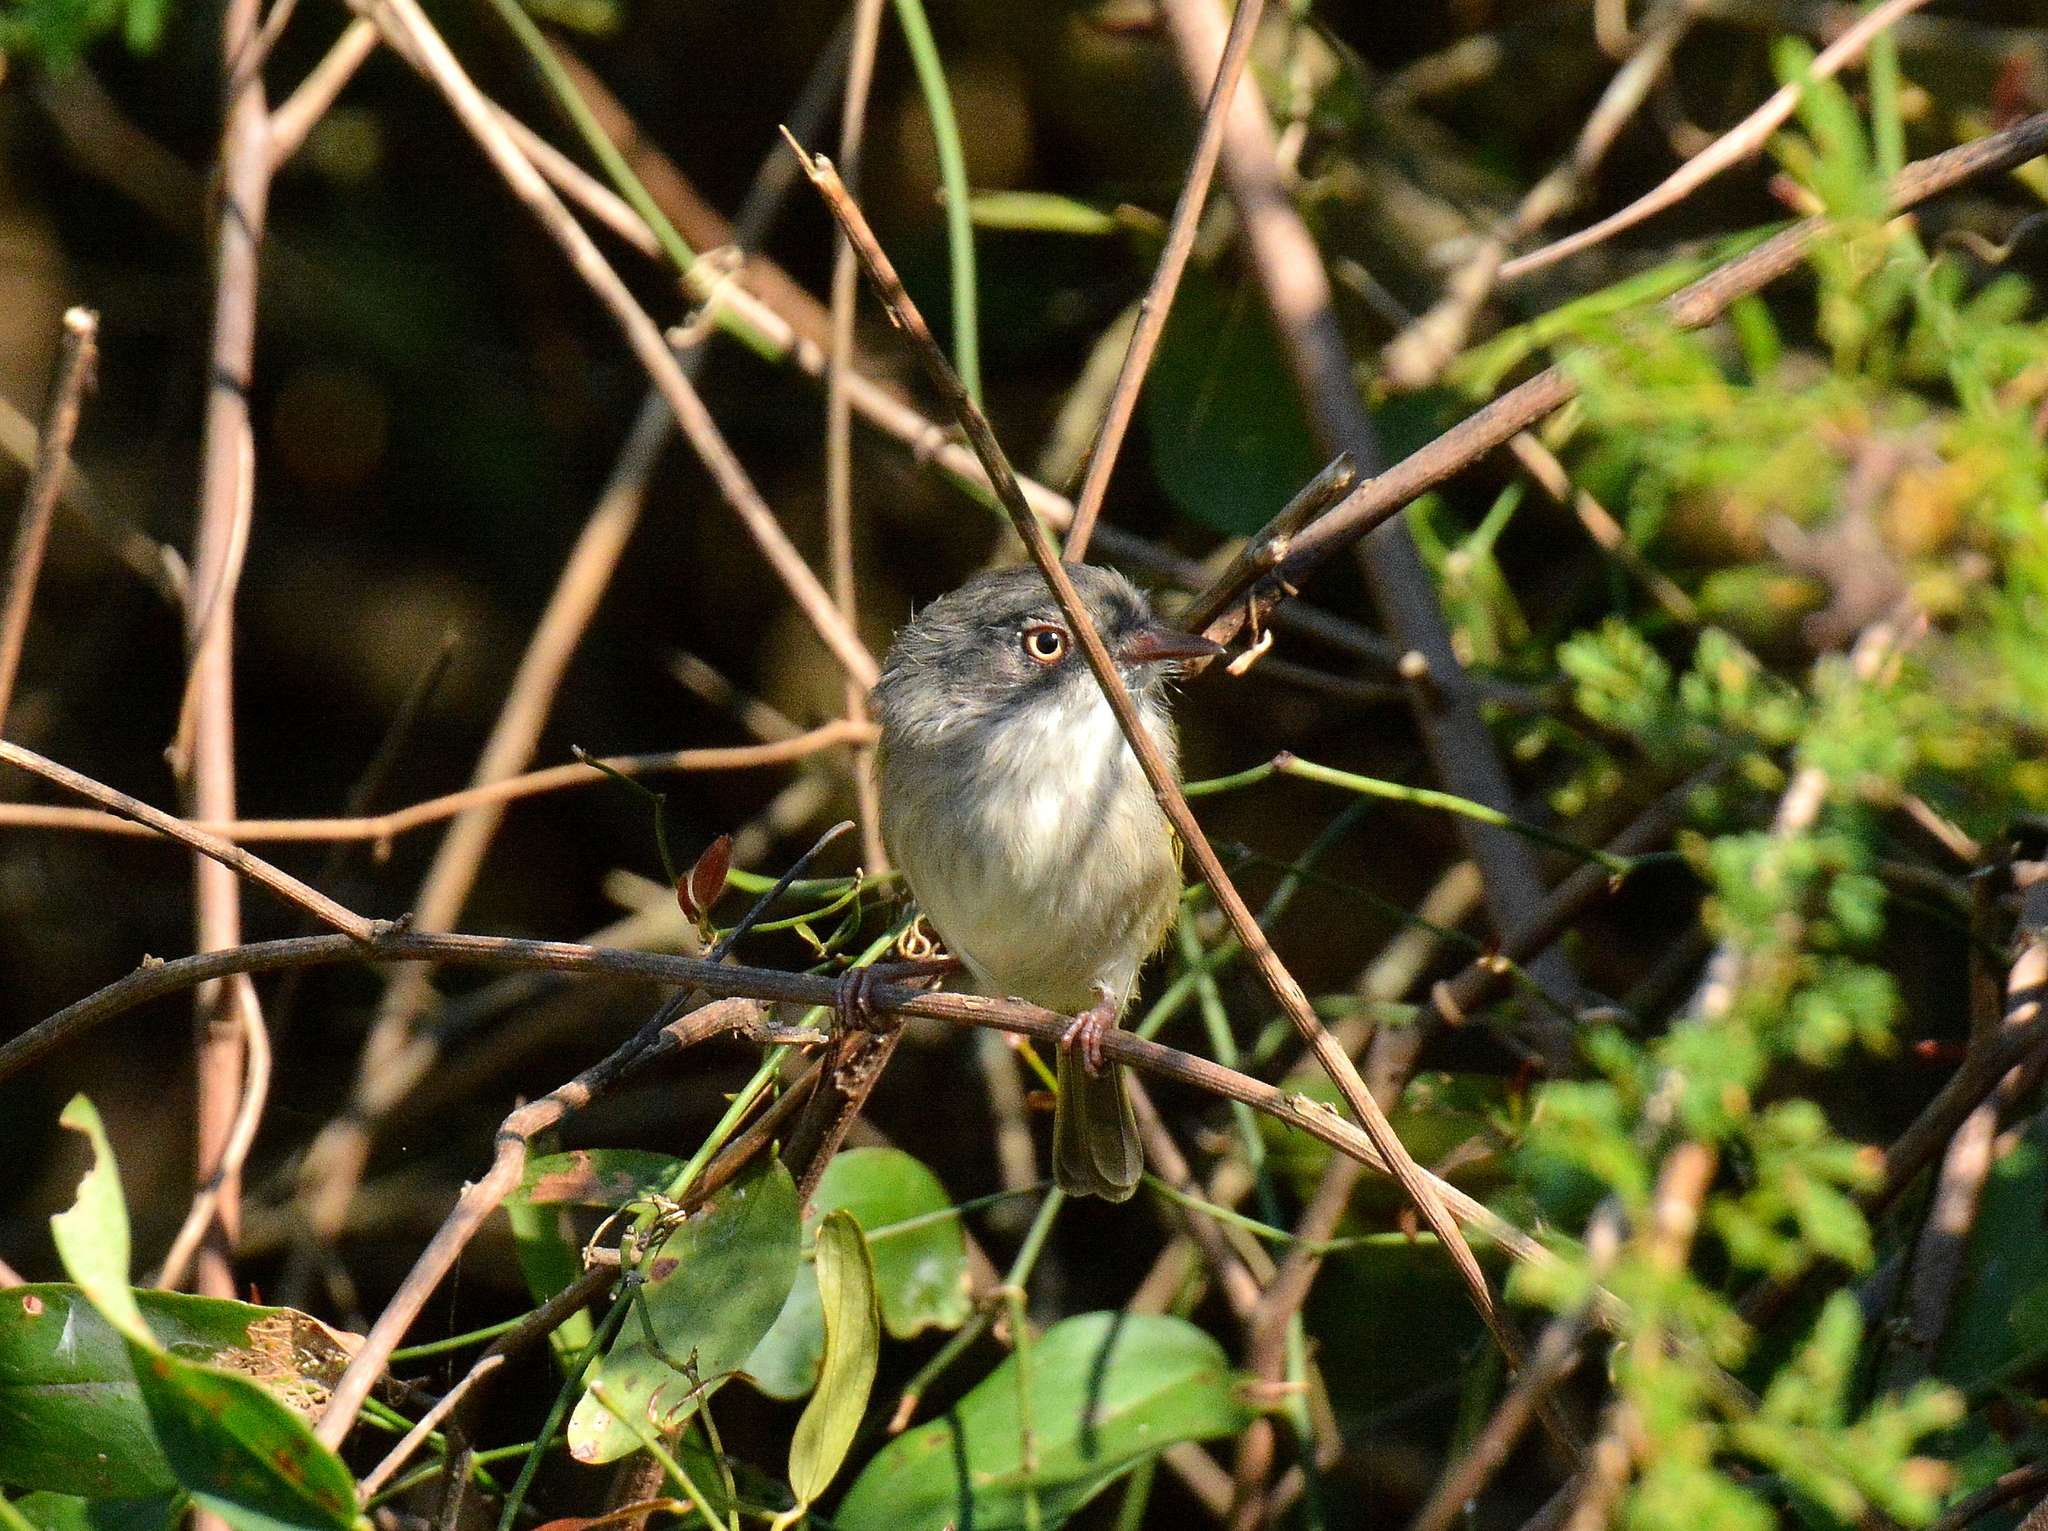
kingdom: Animalia
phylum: Chordata
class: Aves
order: Passeriformes
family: Tyrannidae
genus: Hemitriccus
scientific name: Hemitriccus margaritaceiventer
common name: Pearly-vented tody-tyrant
